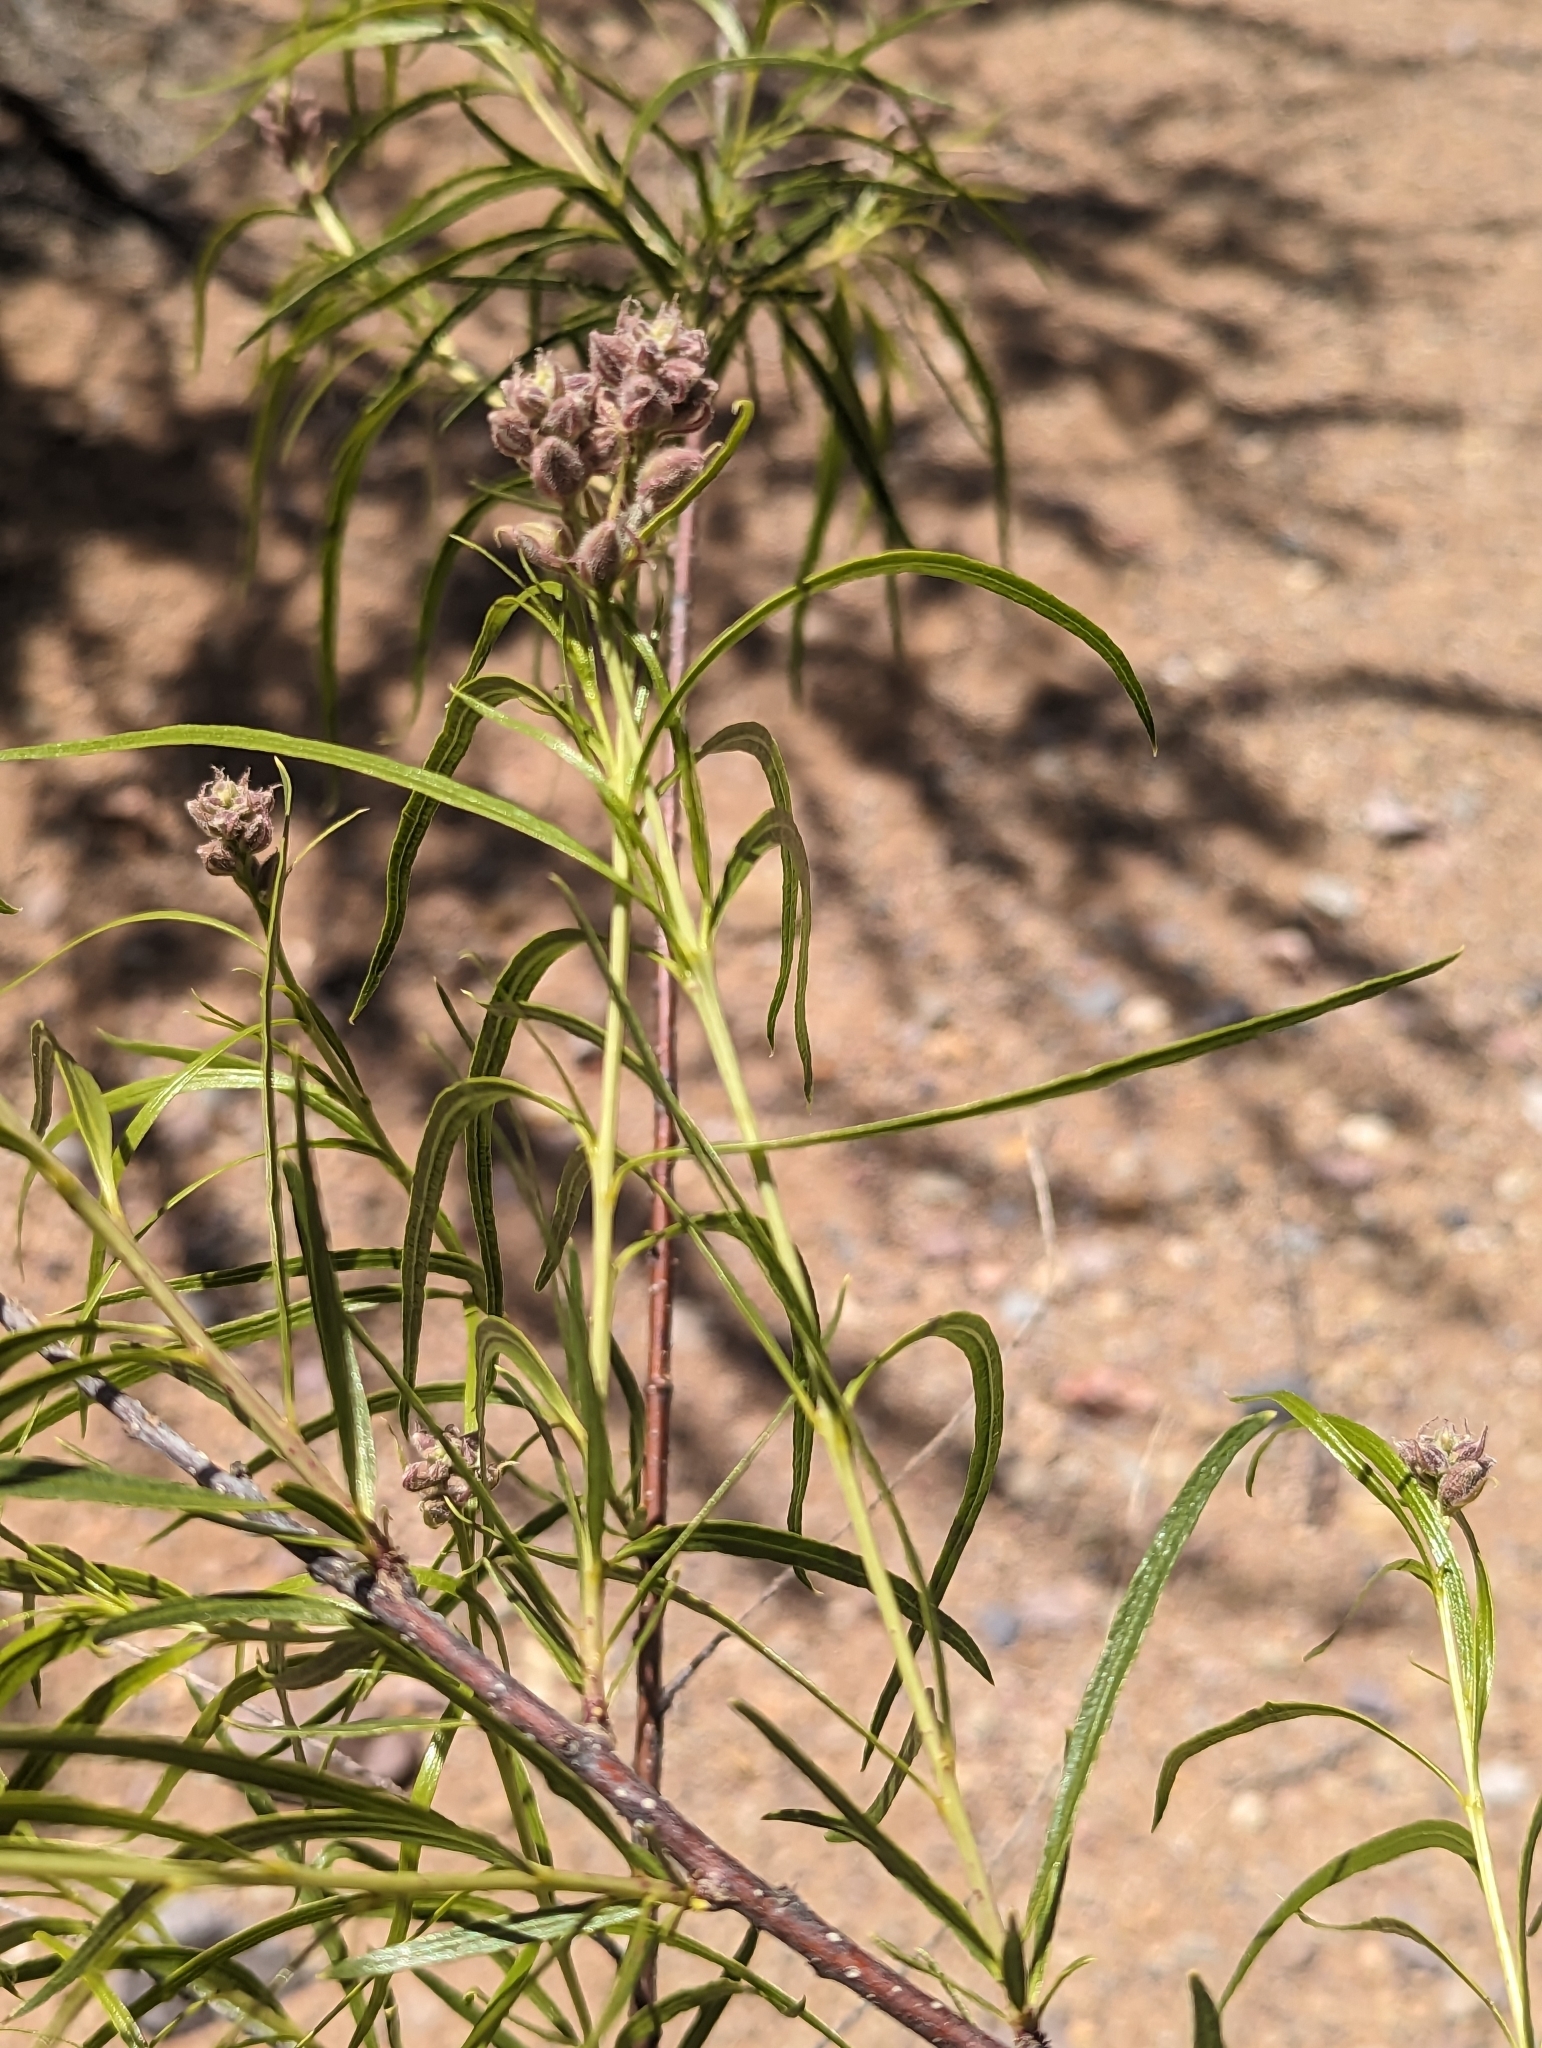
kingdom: Plantae
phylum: Tracheophyta
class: Magnoliopsida
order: Lamiales
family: Bignoniaceae
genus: Chilopsis
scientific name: Chilopsis linearis
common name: Desert-willow
